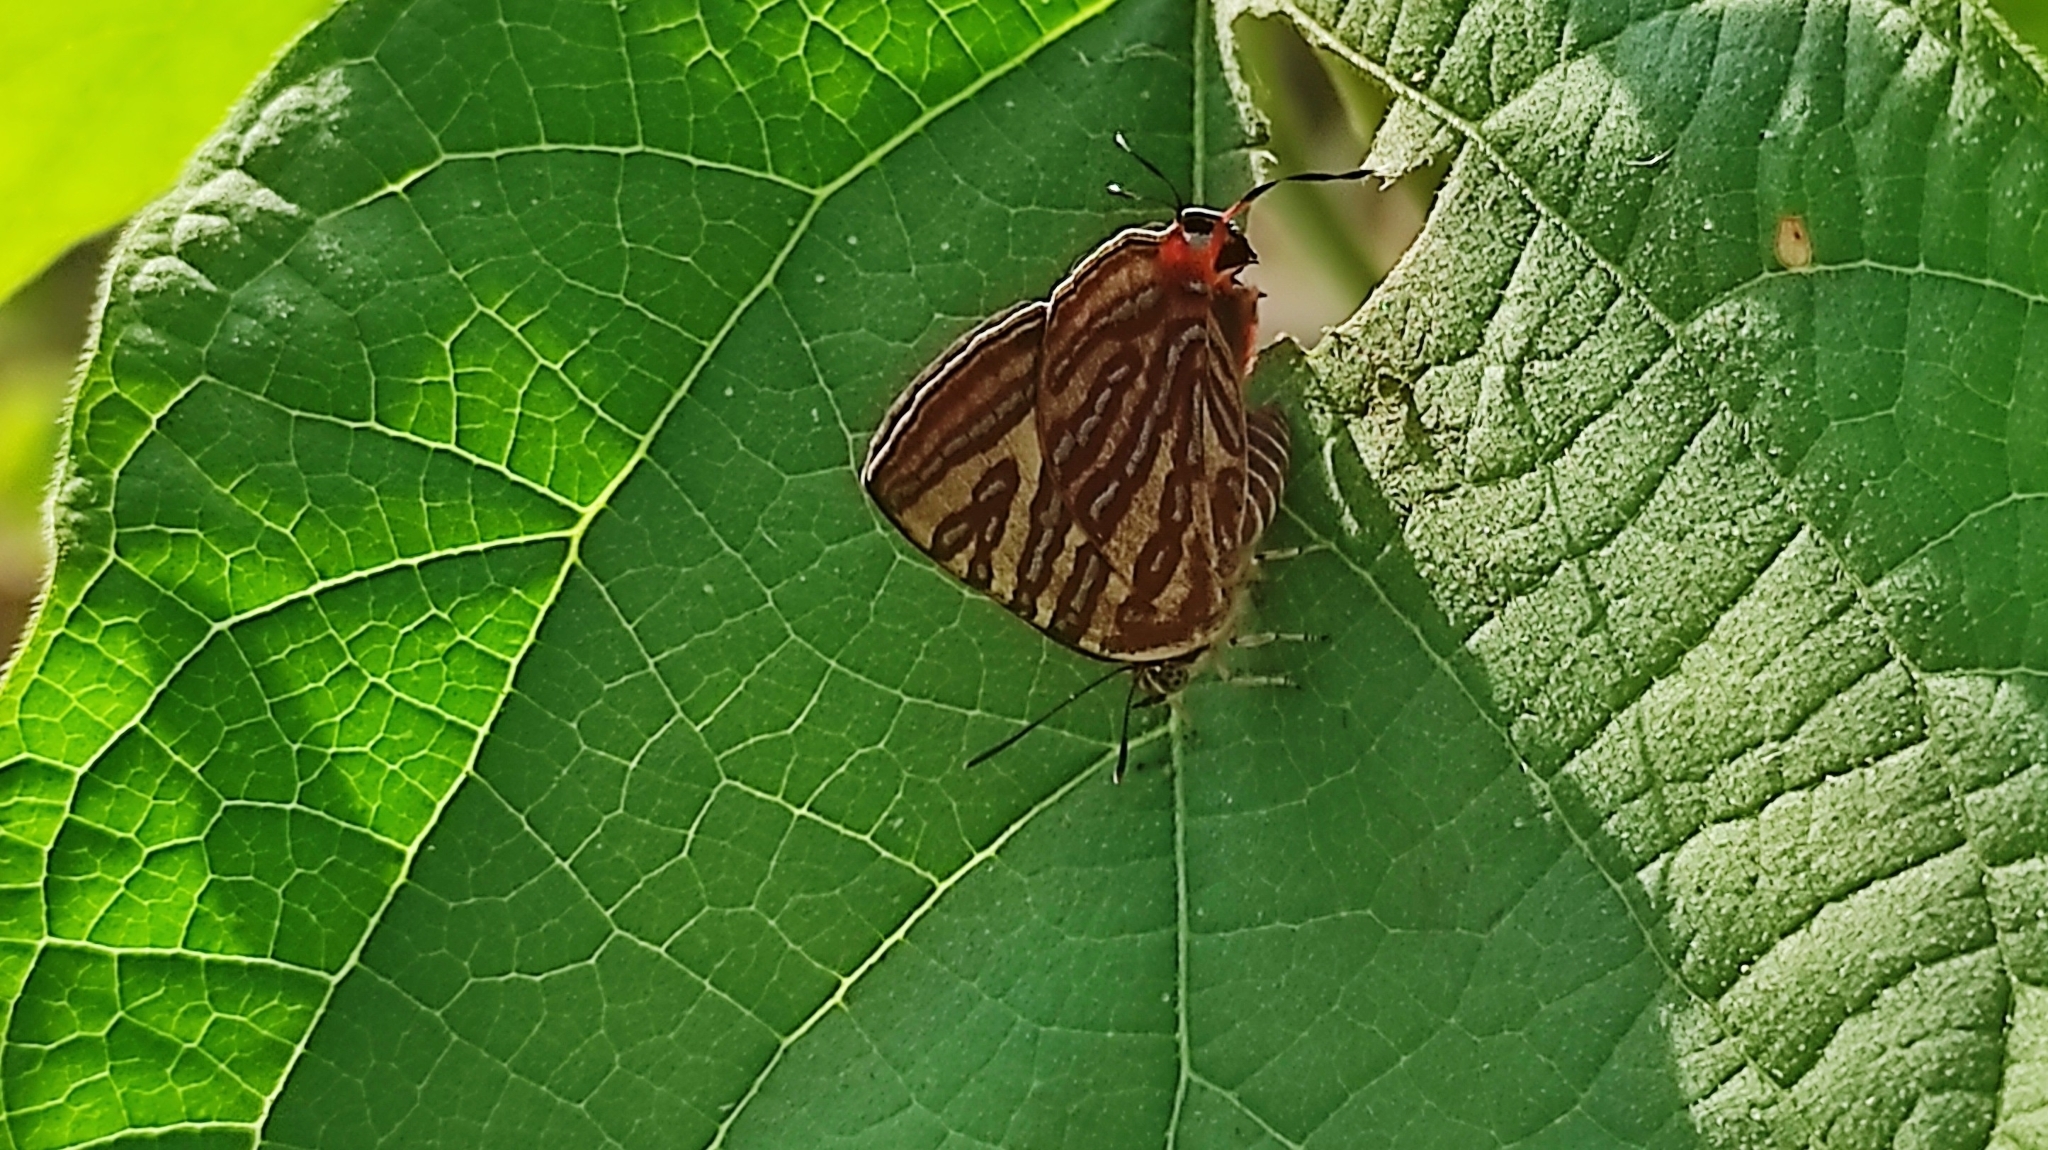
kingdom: Animalia
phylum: Arthropoda
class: Insecta
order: Lepidoptera
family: Lycaenidae
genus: Cigaritis
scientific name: Cigaritis lohita
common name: Long-banded silverline
